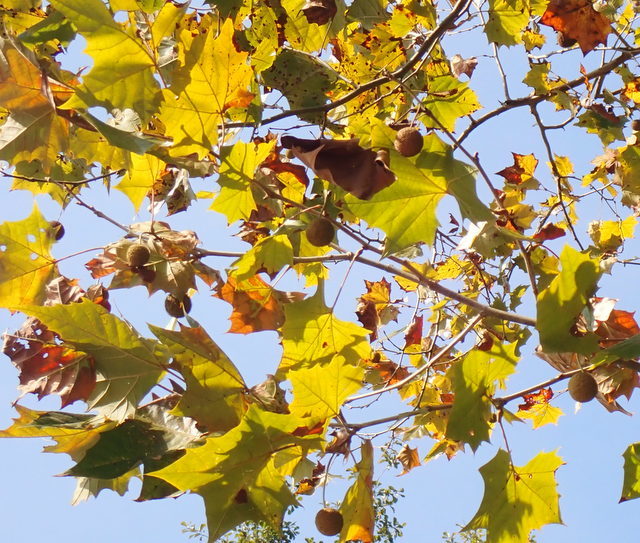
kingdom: Plantae
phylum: Tracheophyta
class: Magnoliopsida
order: Proteales
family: Platanaceae
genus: Platanus
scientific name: Platanus occidentalis
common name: American sycamore
